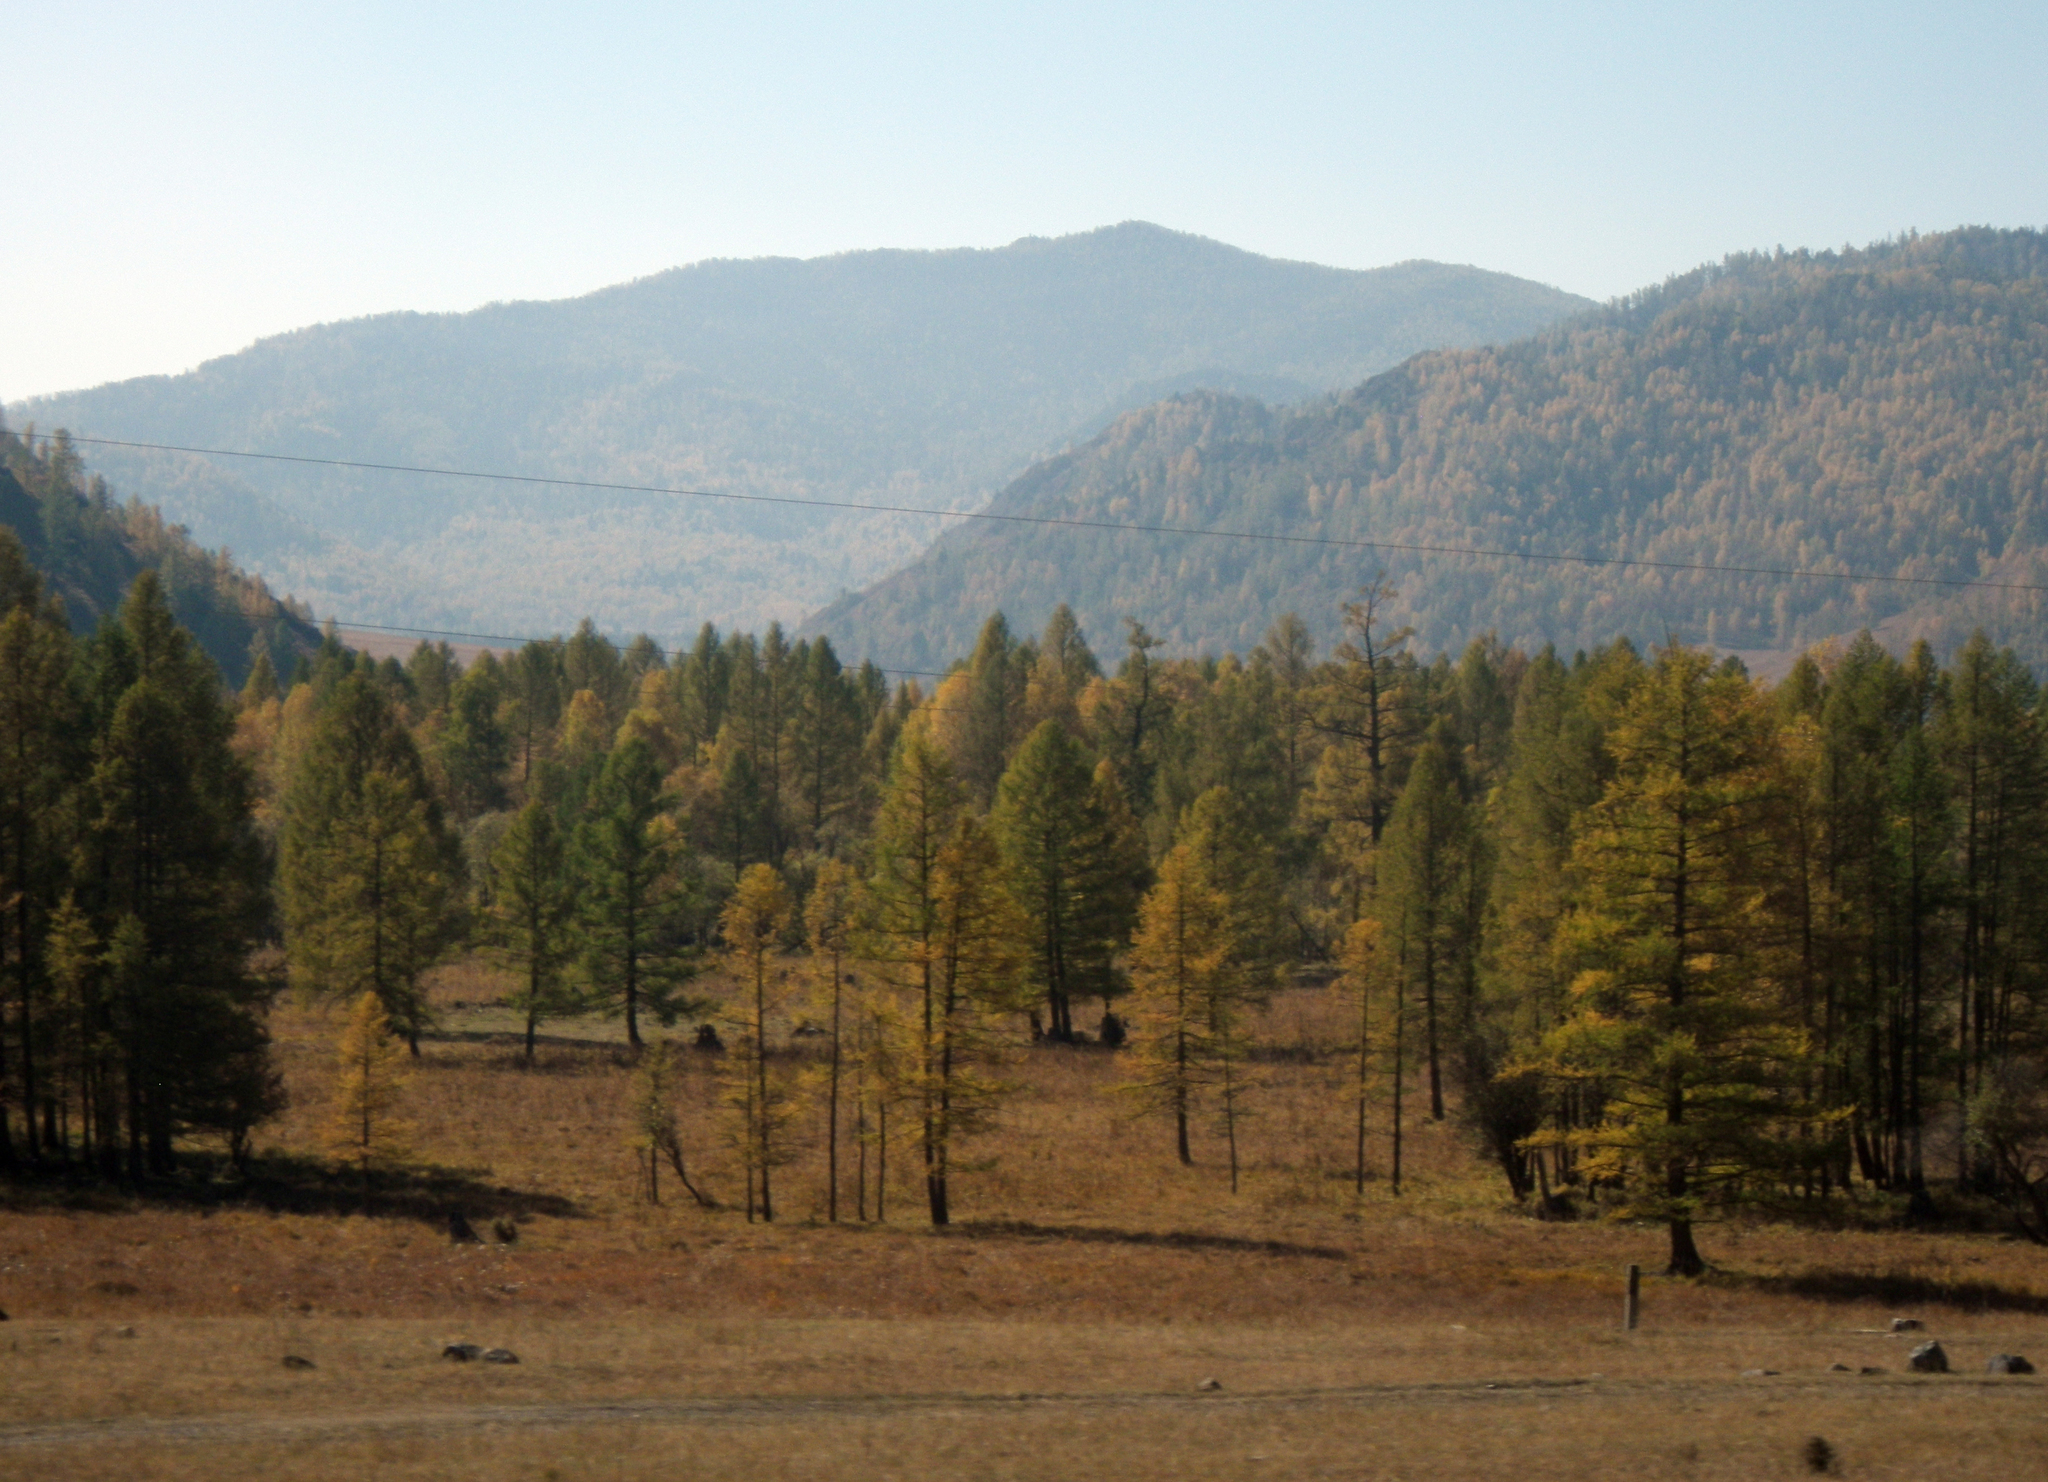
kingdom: Plantae
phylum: Tracheophyta
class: Pinopsida
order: Pinales
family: Pinaceae
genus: Larix
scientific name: Larix sibirica
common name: Siberian larch
